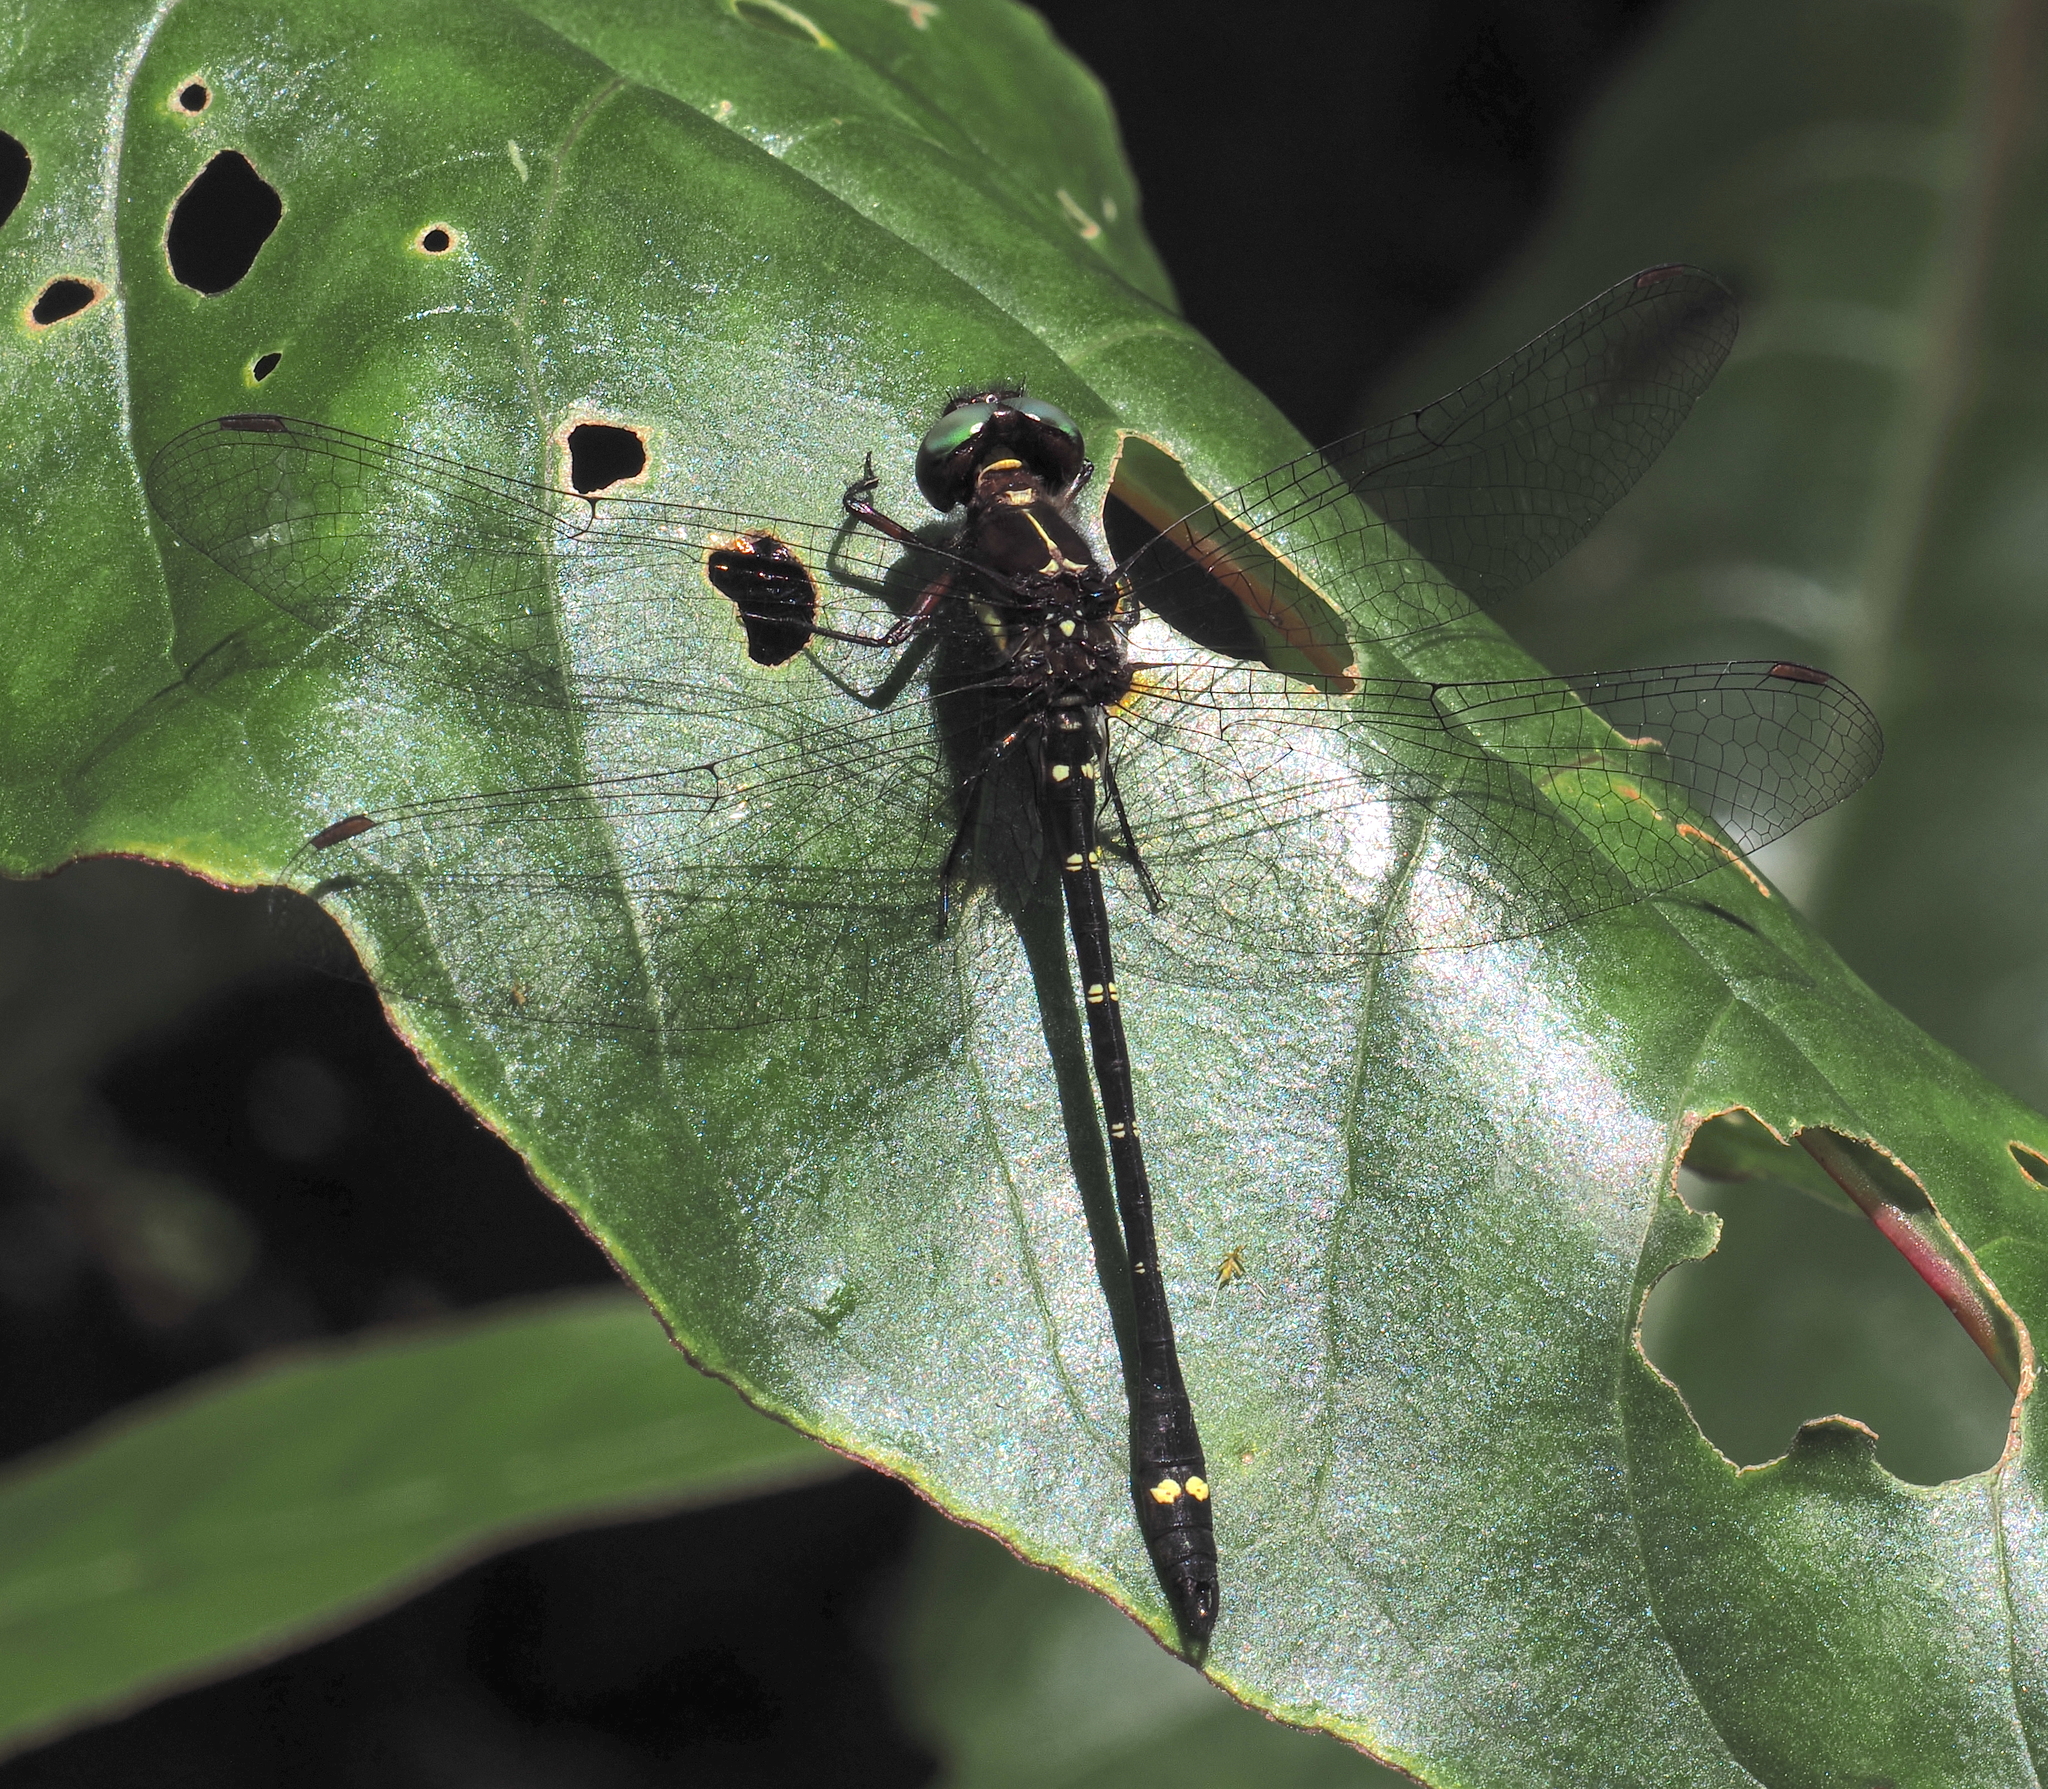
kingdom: Animalia
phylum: Arthropoda
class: Insecta
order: Odonata
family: Synthemistidae
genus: Gomphomacromia
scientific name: Gomphomacromia fallax
